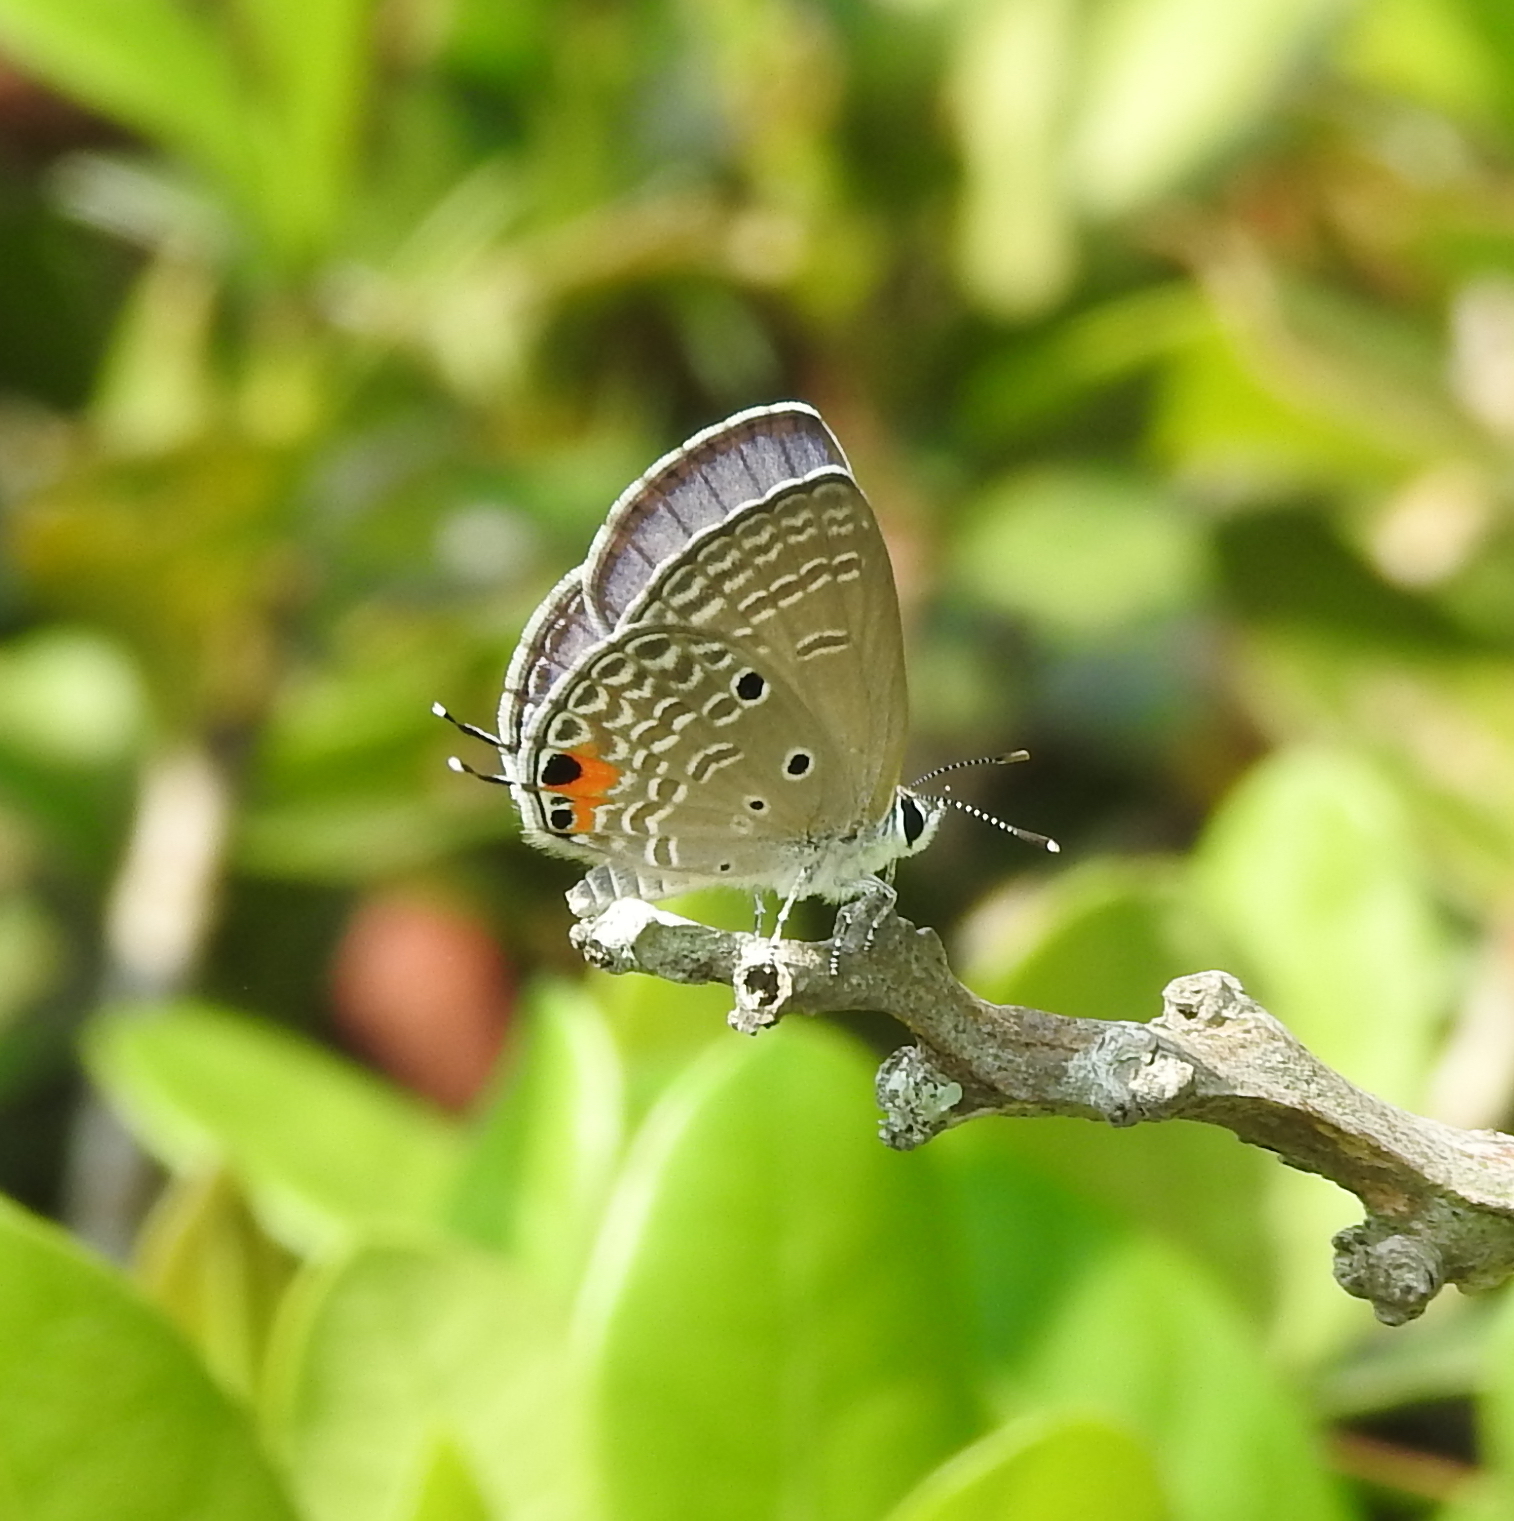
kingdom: Animalia
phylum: Arthropoda
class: Insecta
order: Lepidoptera
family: Lycaenidae
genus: Luthrodes
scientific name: Luthrodes pandava
